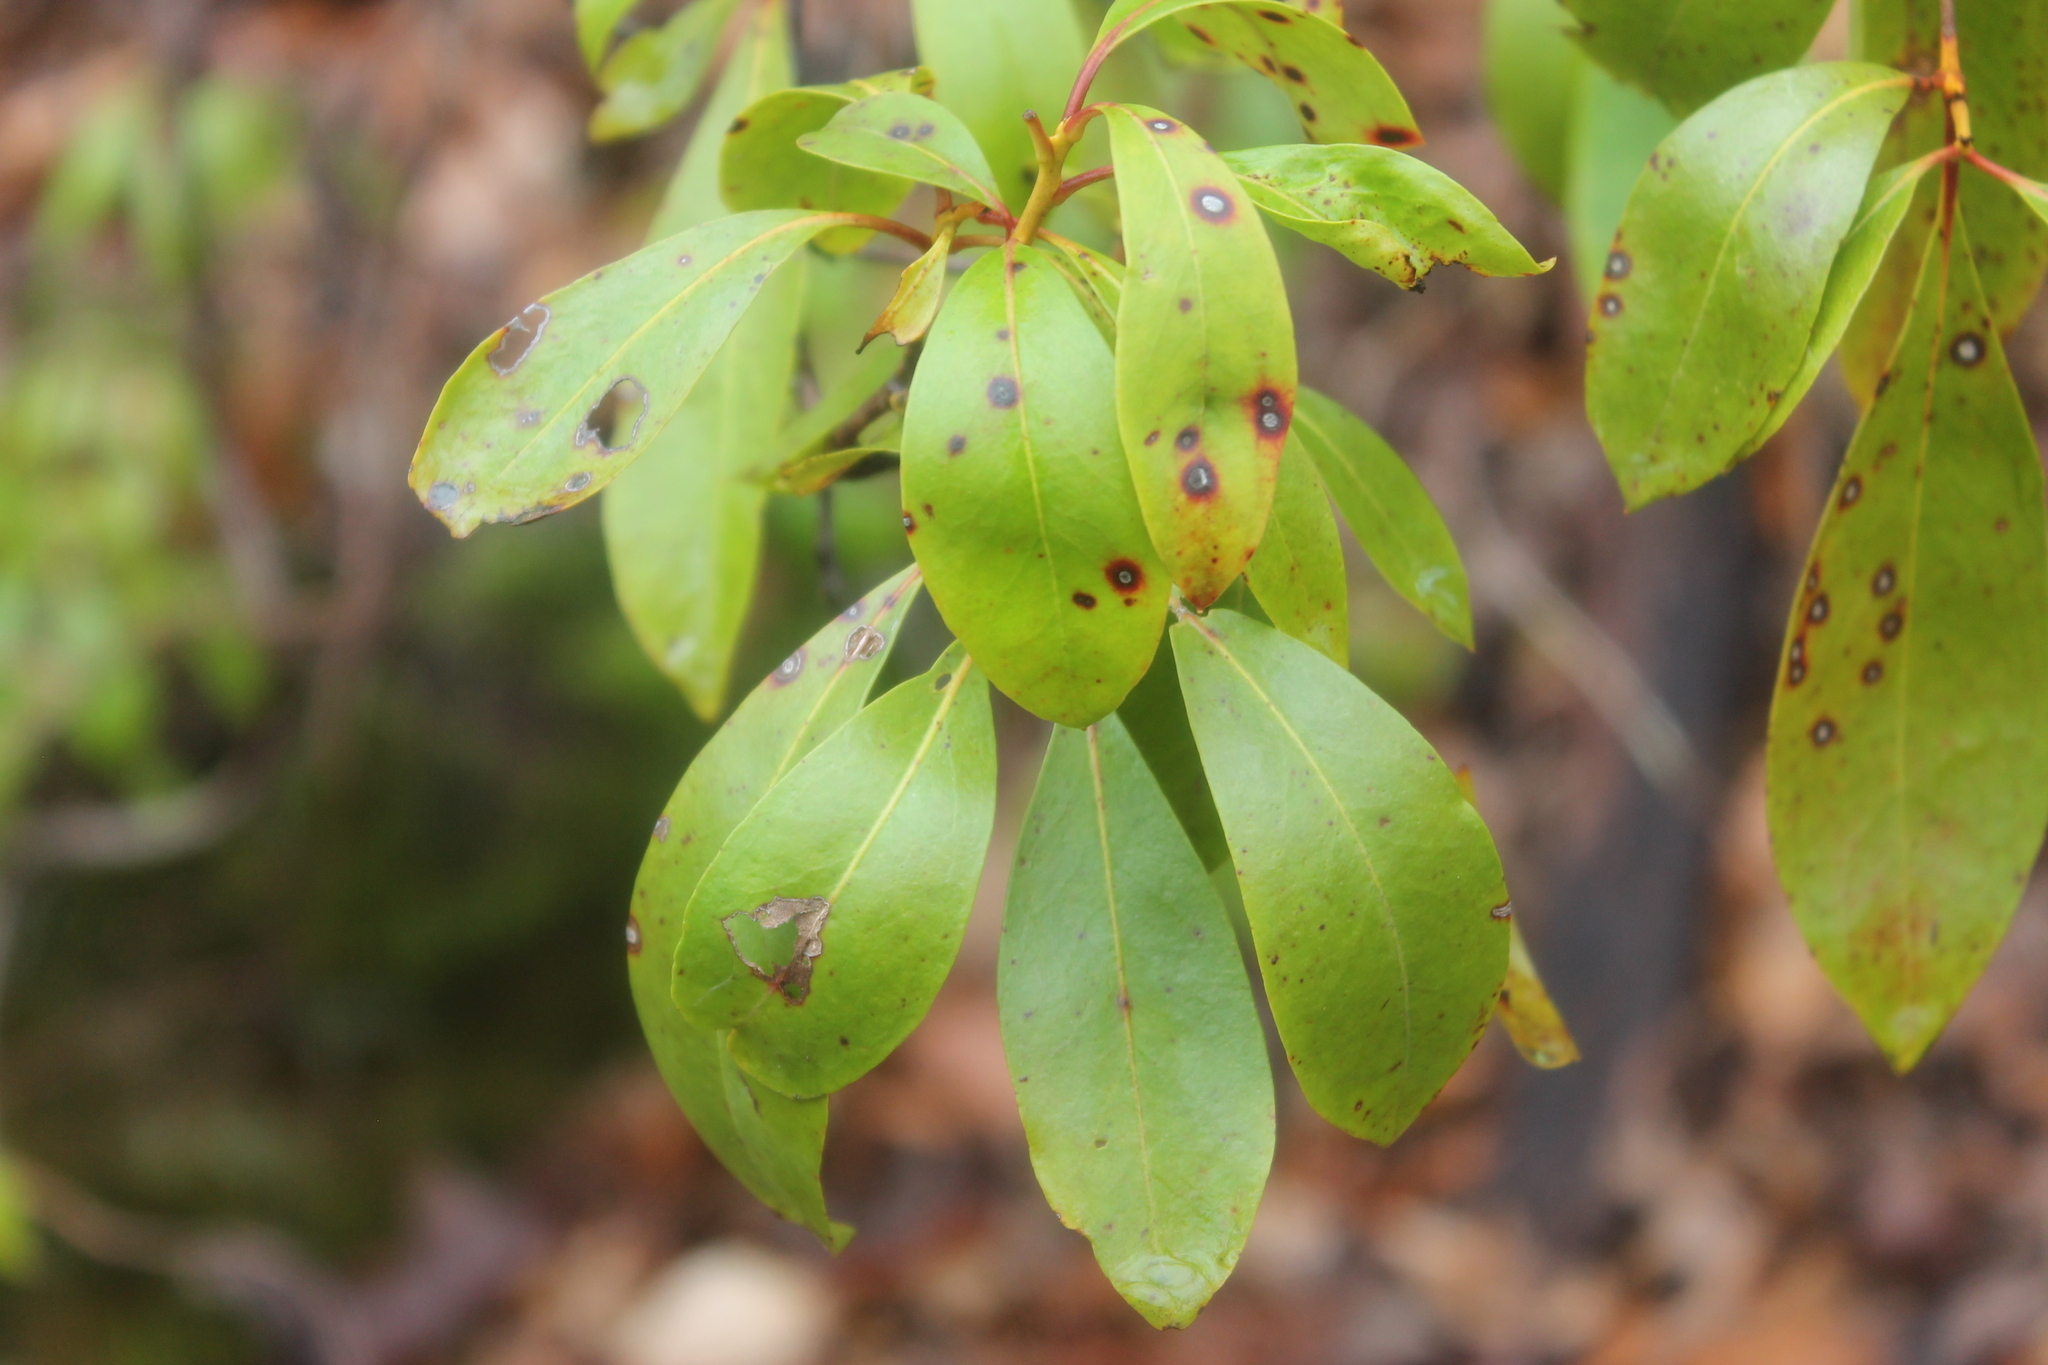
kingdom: Plantae
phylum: Tracheophyta
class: Magnoliopsida
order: Ericales
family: Ericaceae
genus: Kalmia
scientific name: Kalmia latifolia
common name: Mountain-laurel
